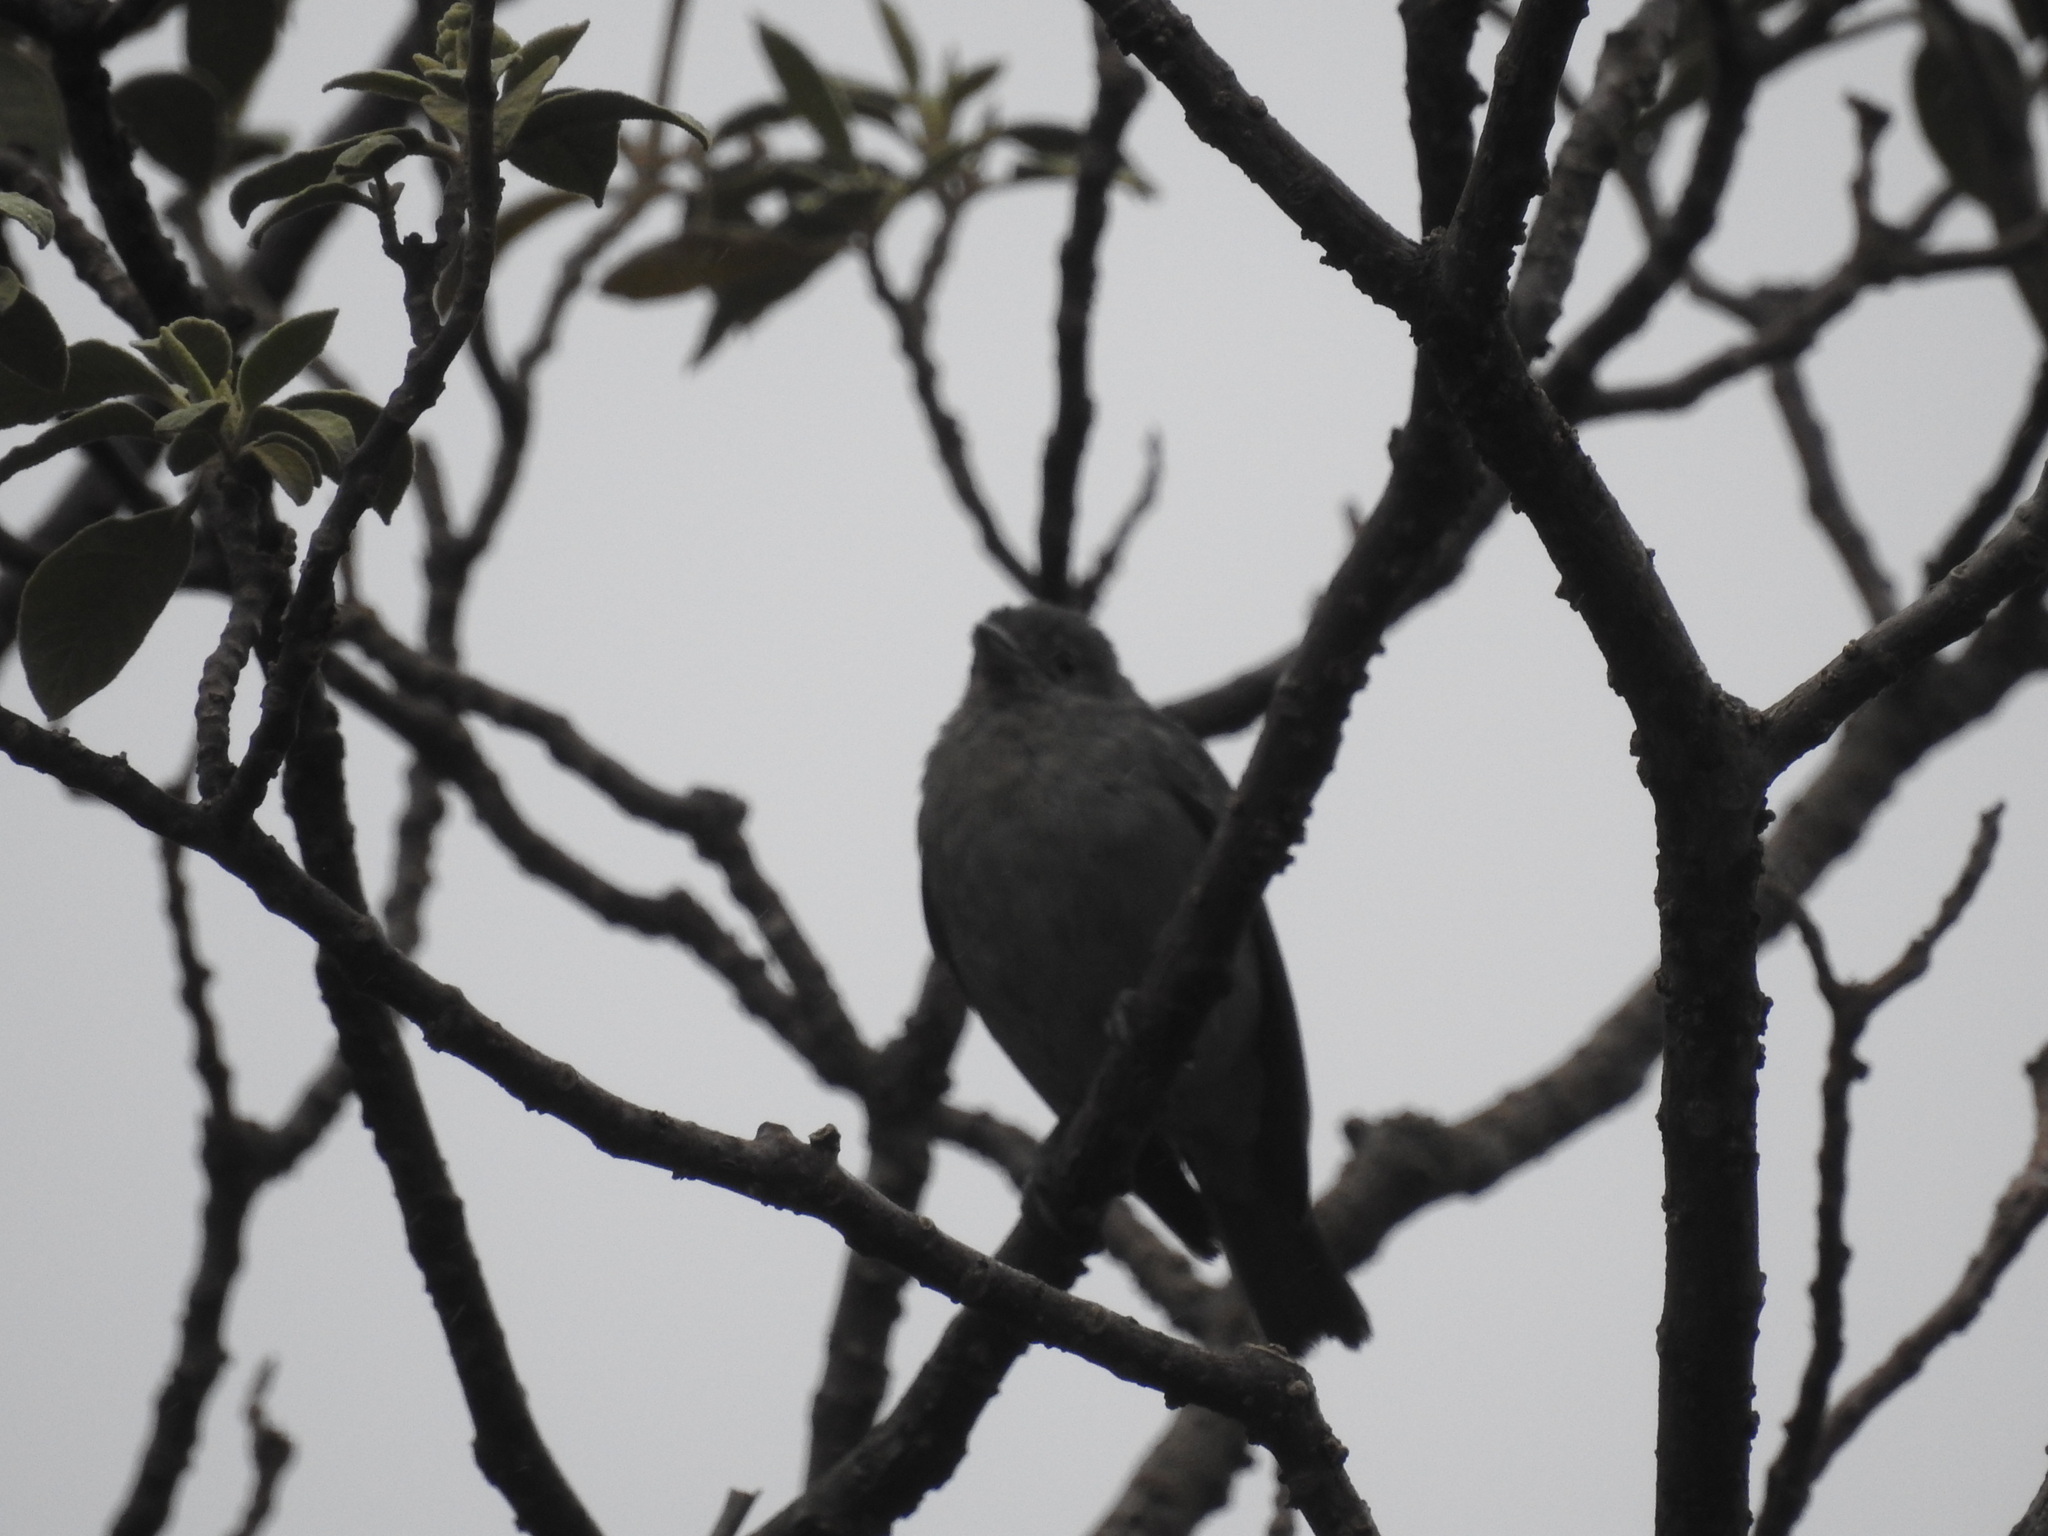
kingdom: Animalia
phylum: Chordata
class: Aves
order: Passeriformes
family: Thraupidae
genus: Thraupis
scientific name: Thraupis sayaca
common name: Sayaca tanager
